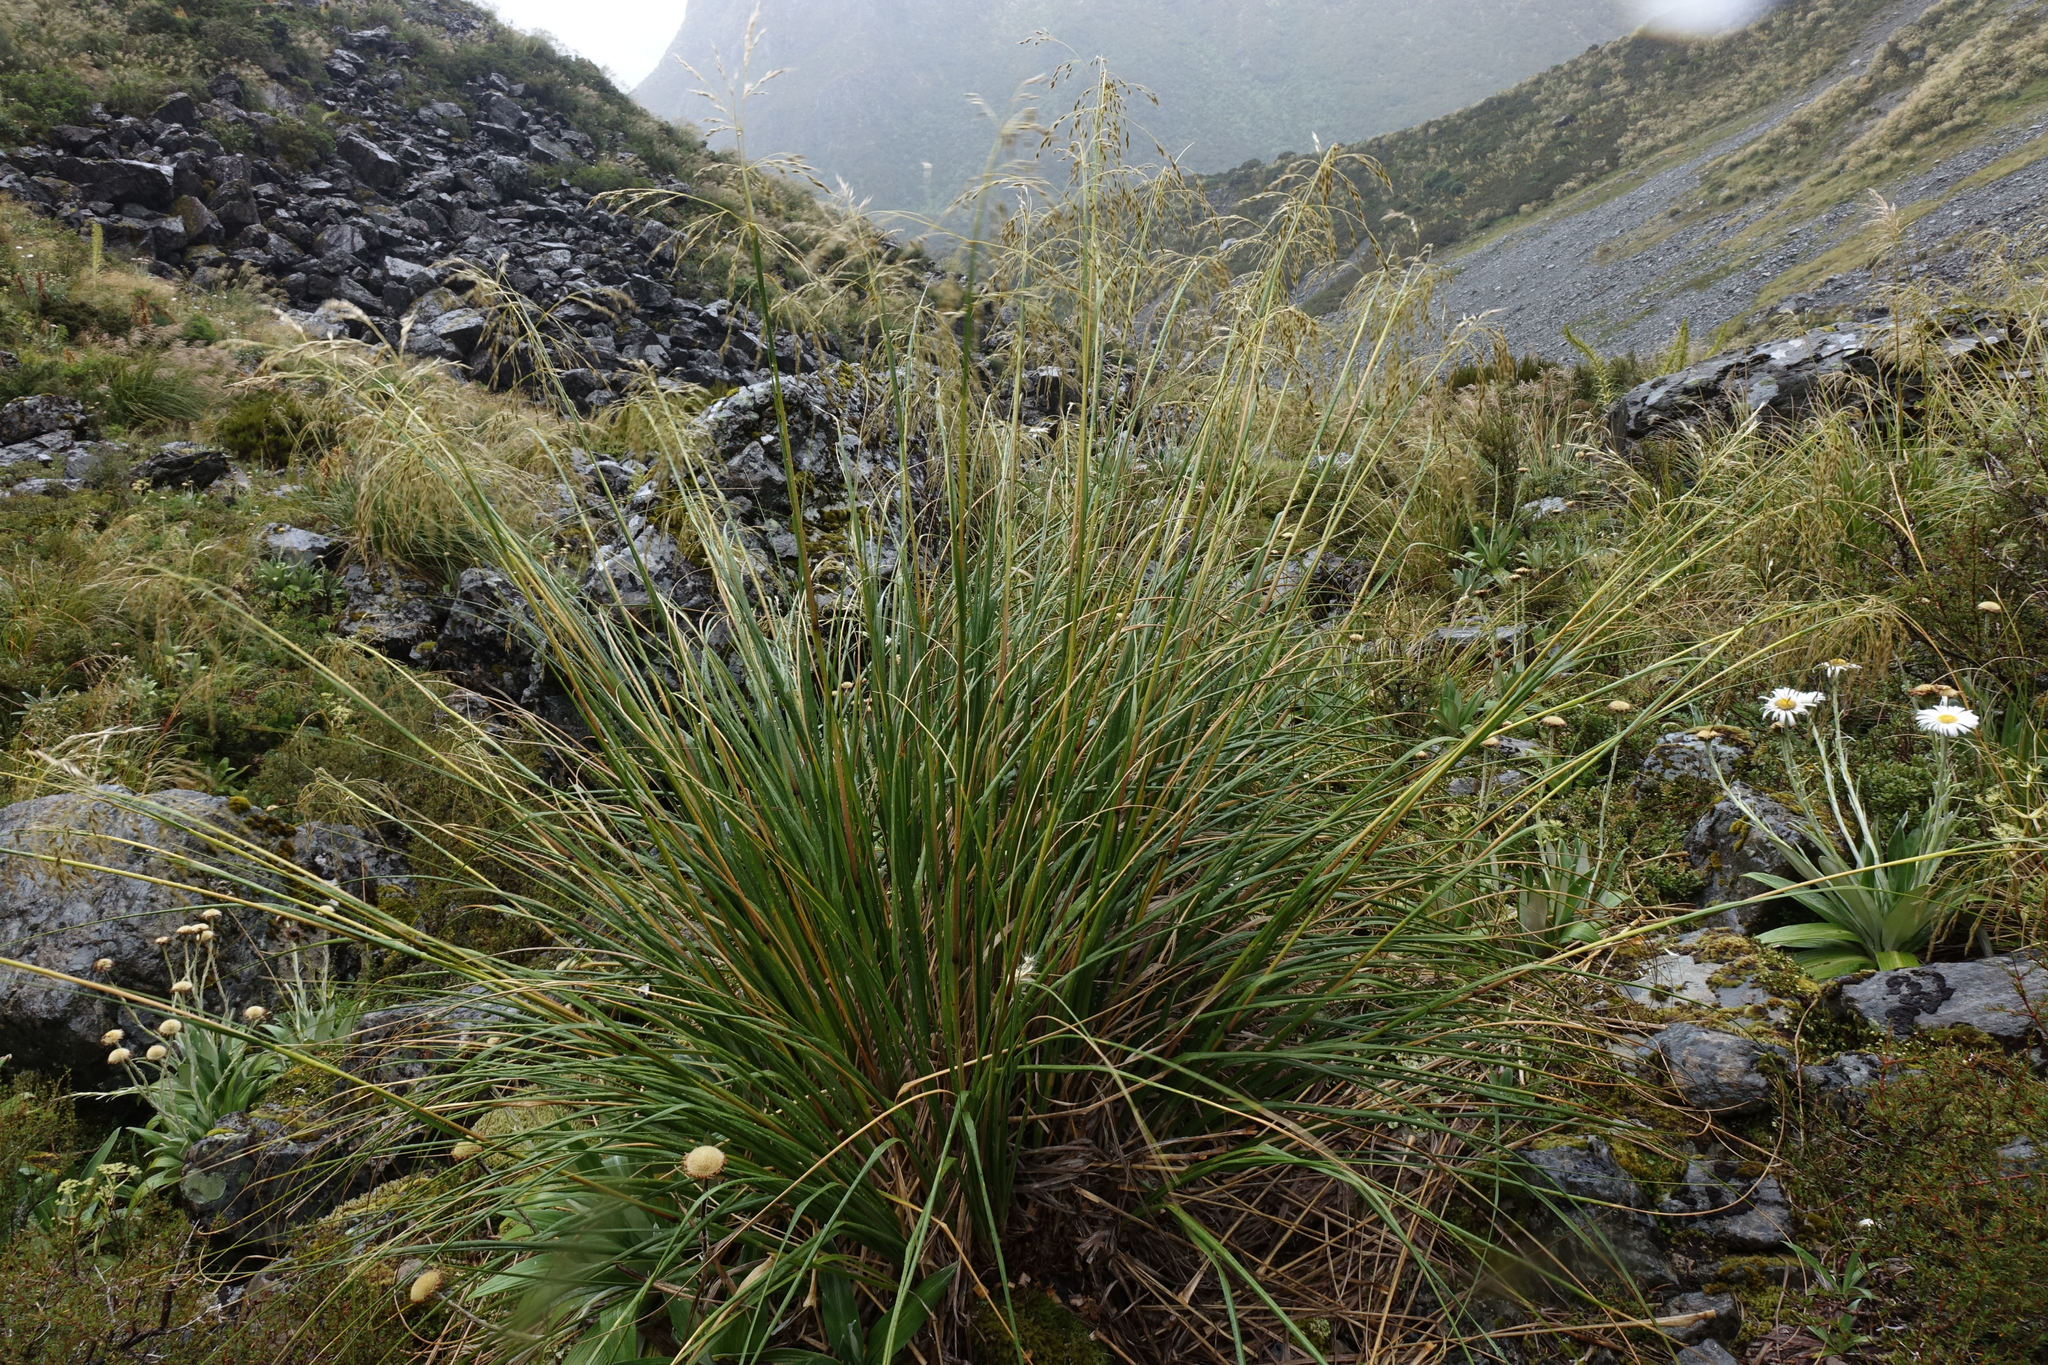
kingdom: Plantae
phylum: Tracheophyta
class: Liliopsida
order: Poales
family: Poaceae
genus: Chionochloa
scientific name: Chionochloa flavescens
